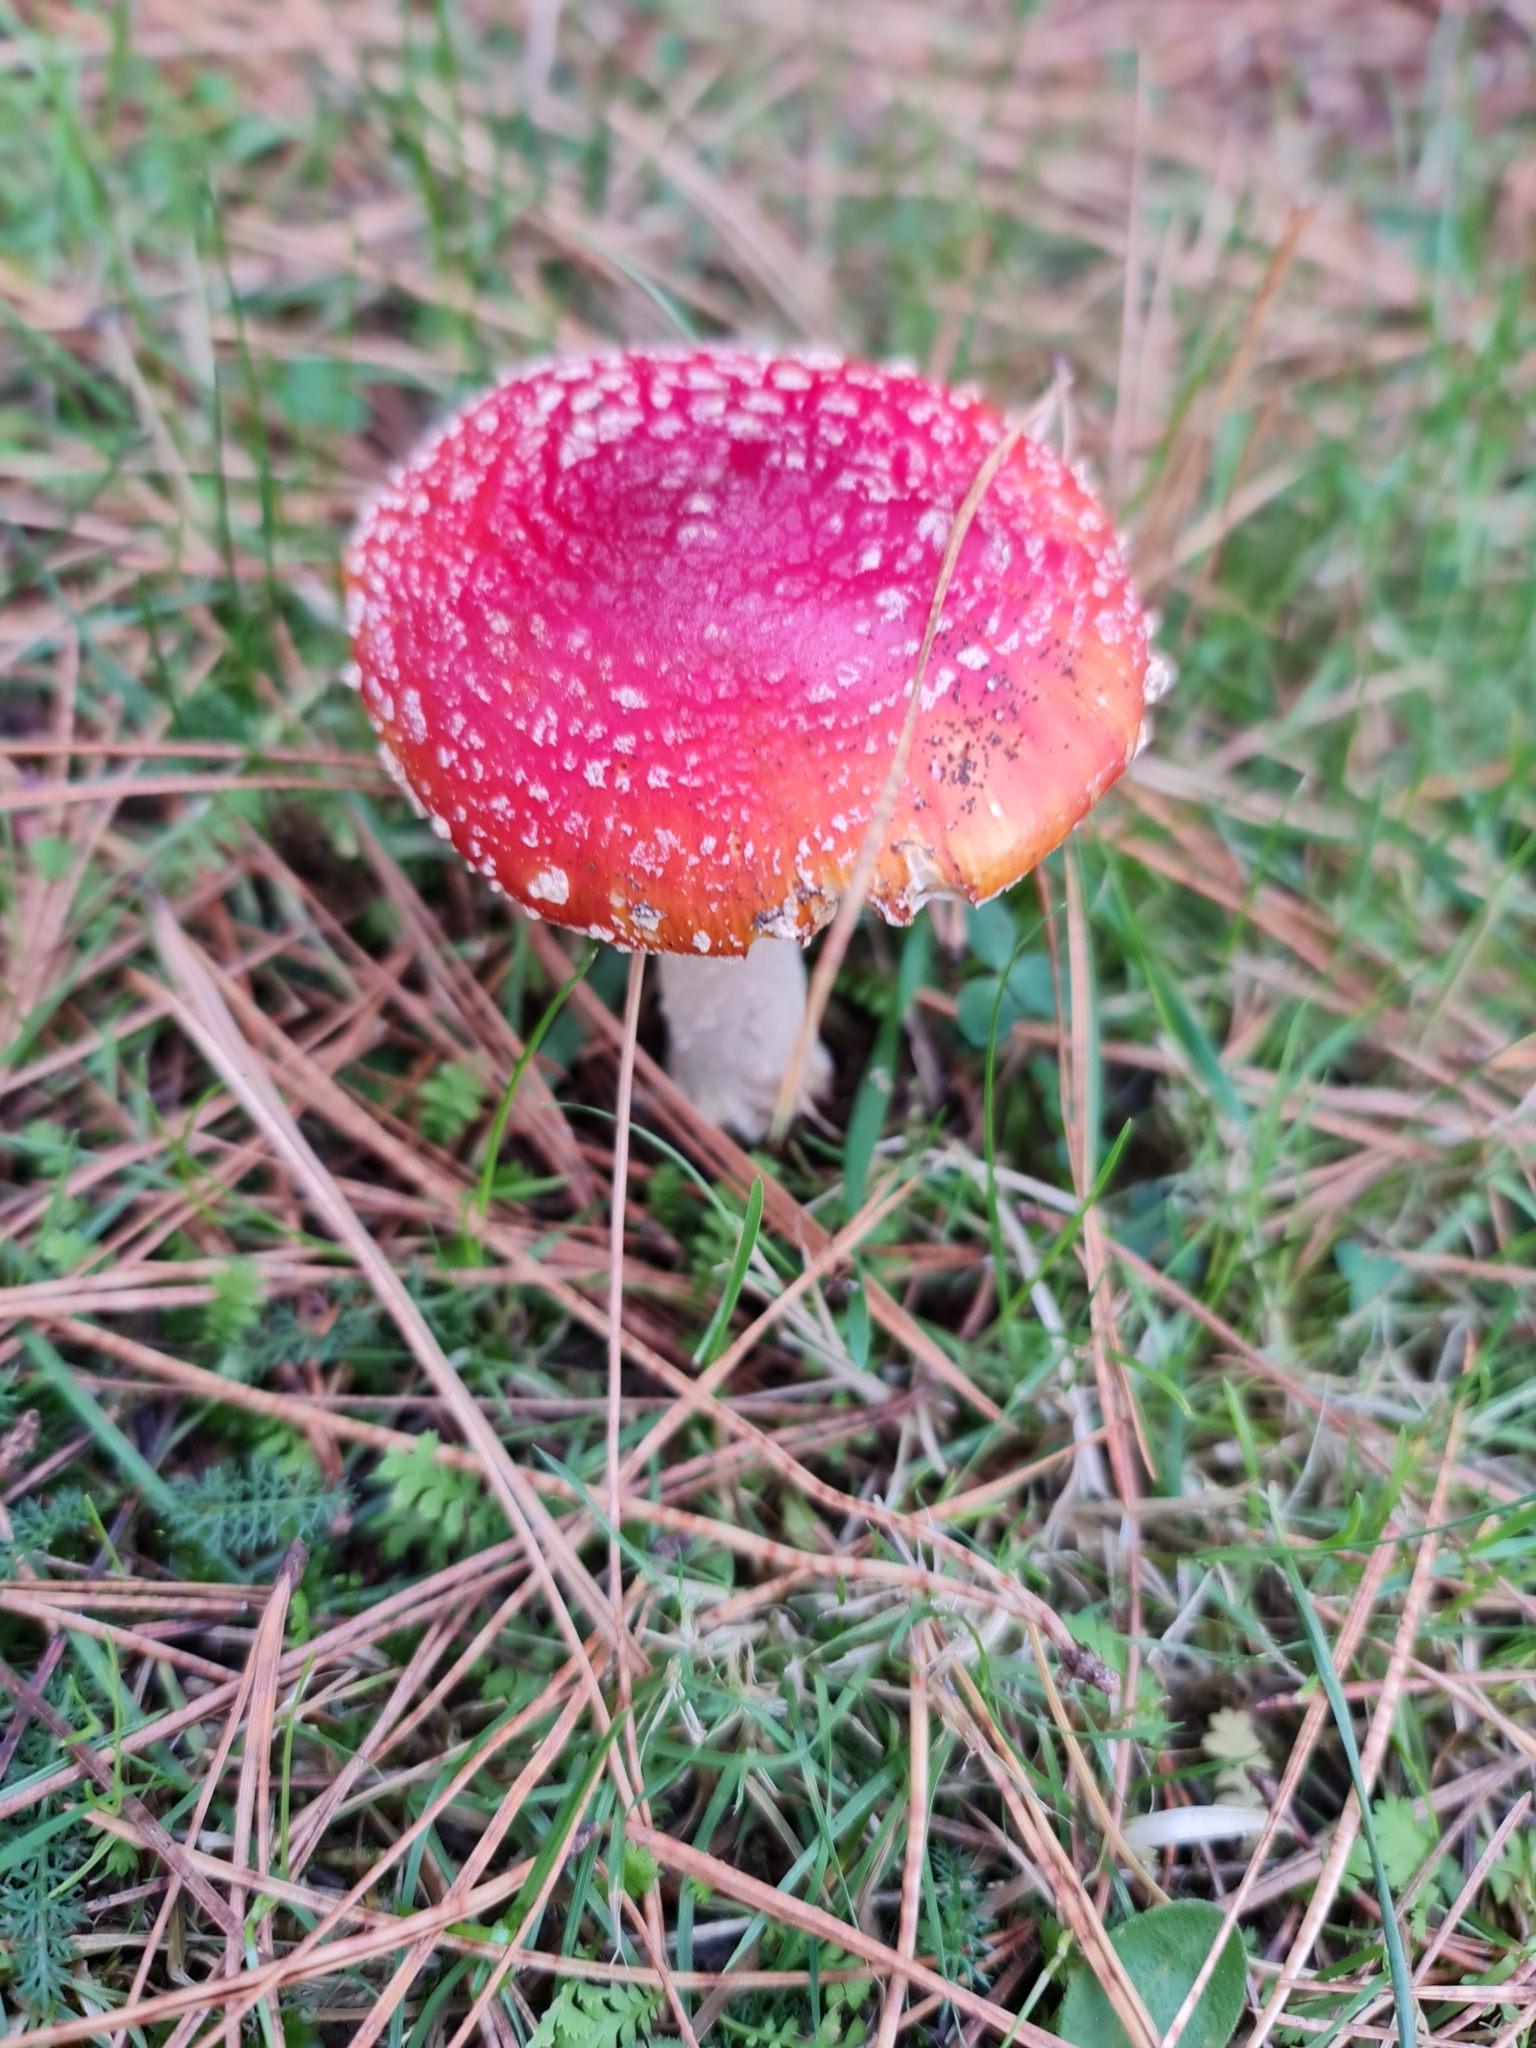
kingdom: Fungi
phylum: Basidiomycota
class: Agaricomycetes
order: Agaricales
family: Amanitaceae
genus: Amanita
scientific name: Amanita muscaria
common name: Fly agaric
